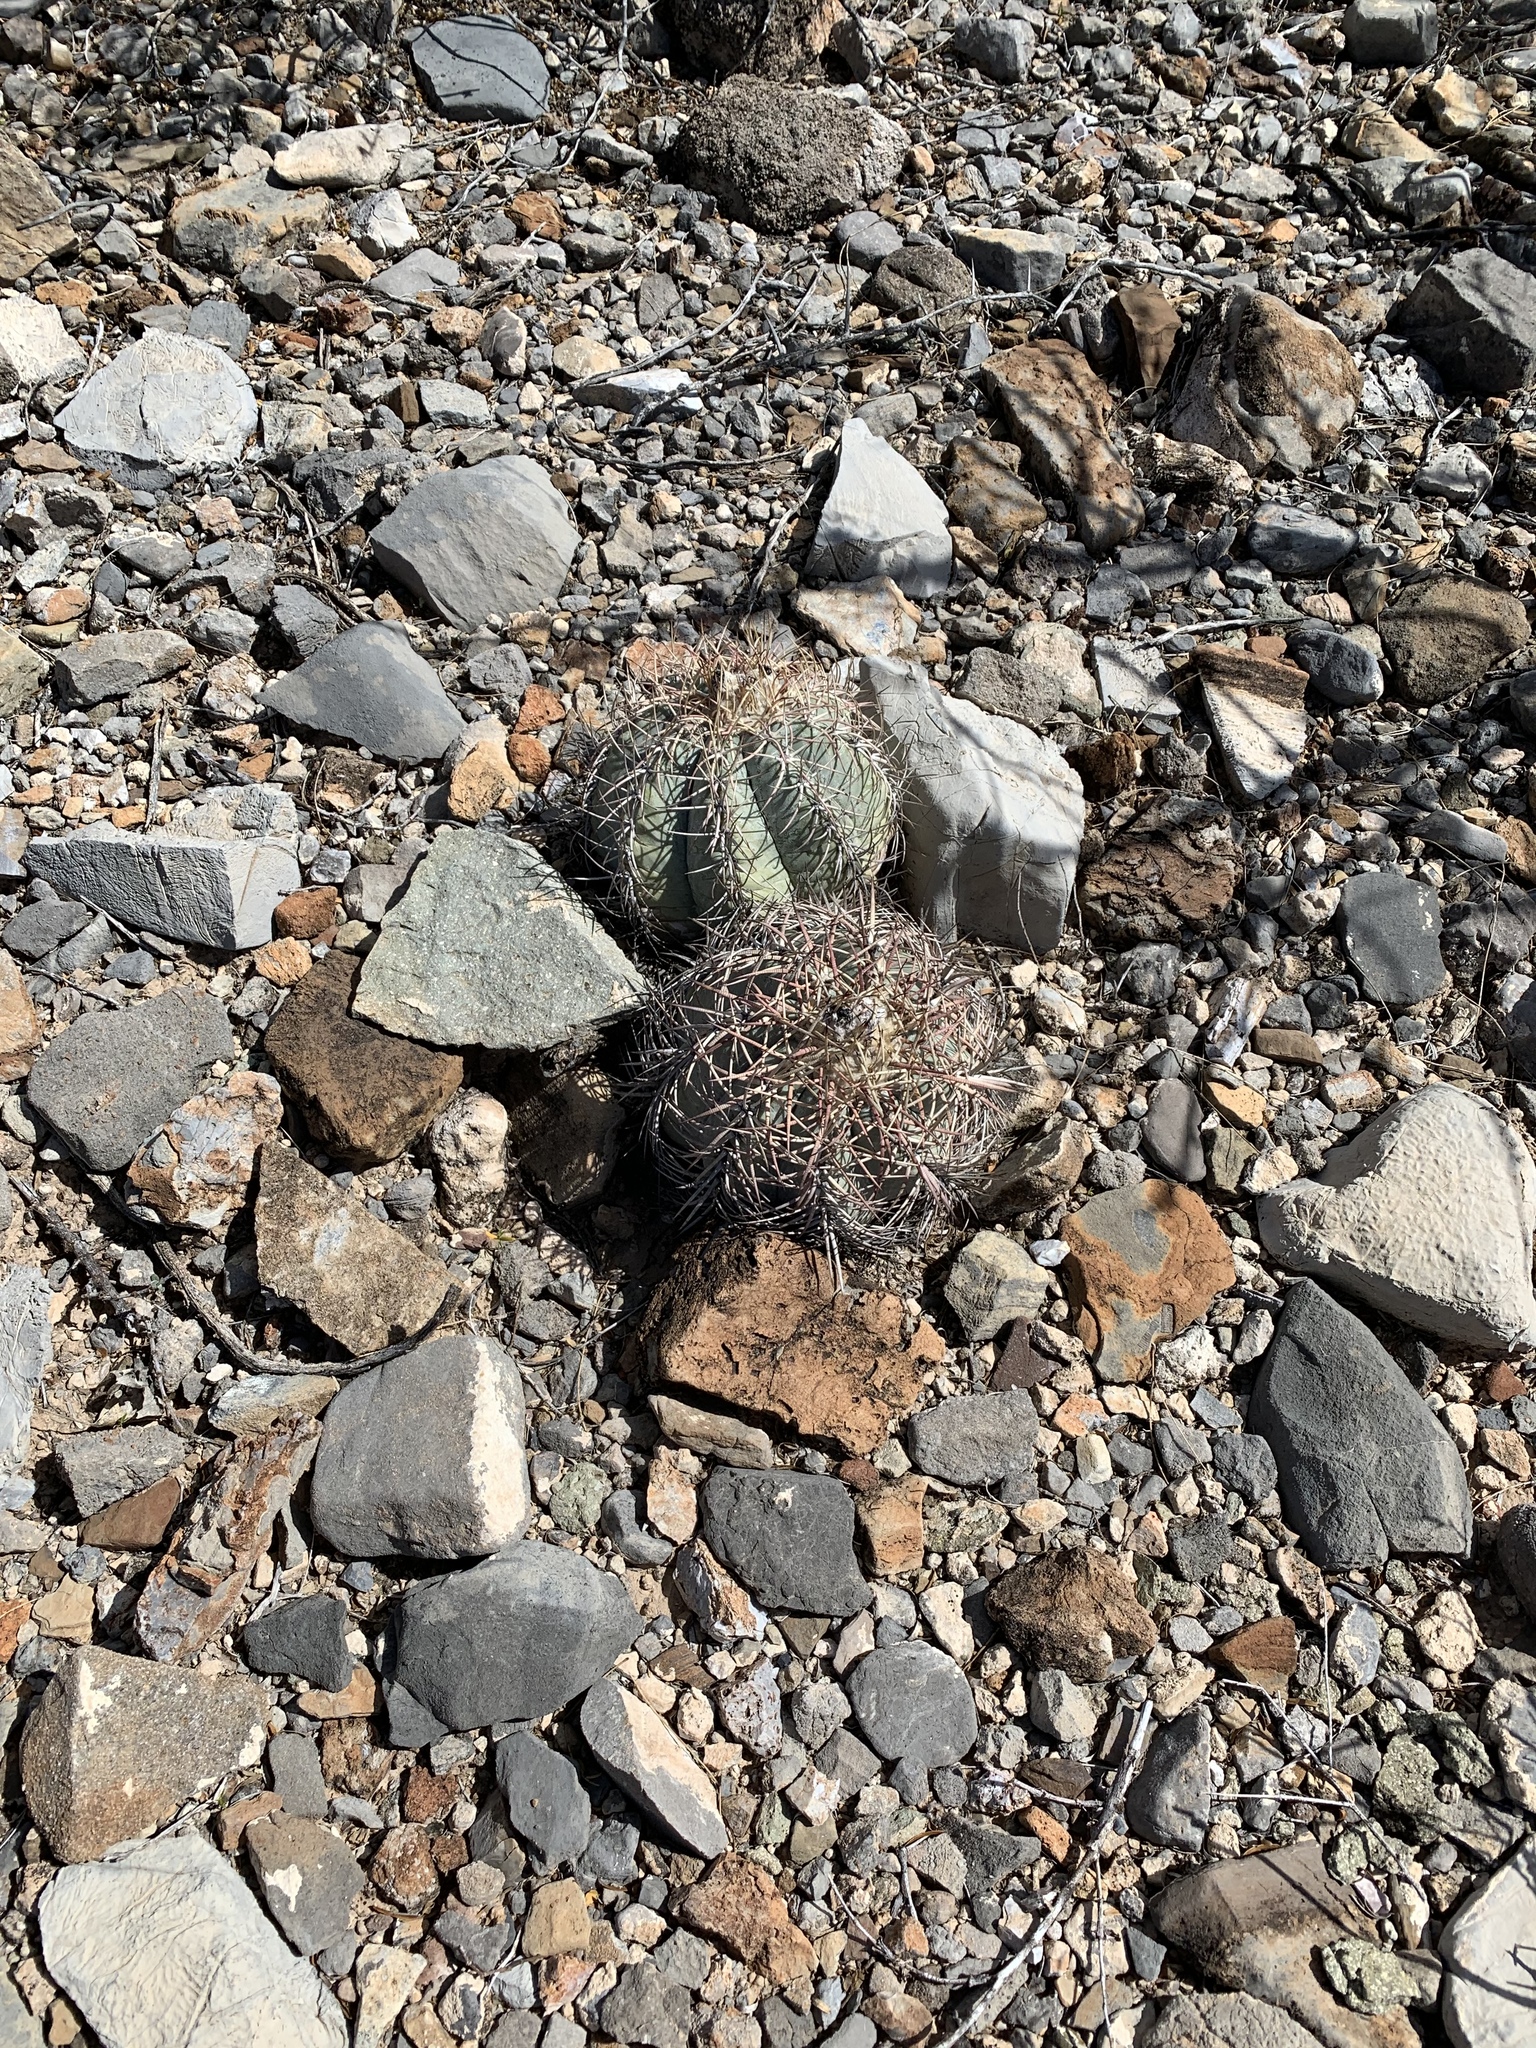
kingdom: Plantae
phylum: Tracheophyta
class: Magnoliopsida
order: Caryophyllales
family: Cactaceae
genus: Echinocactus
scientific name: Echinocactus horizonthalonius
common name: Devilshead
